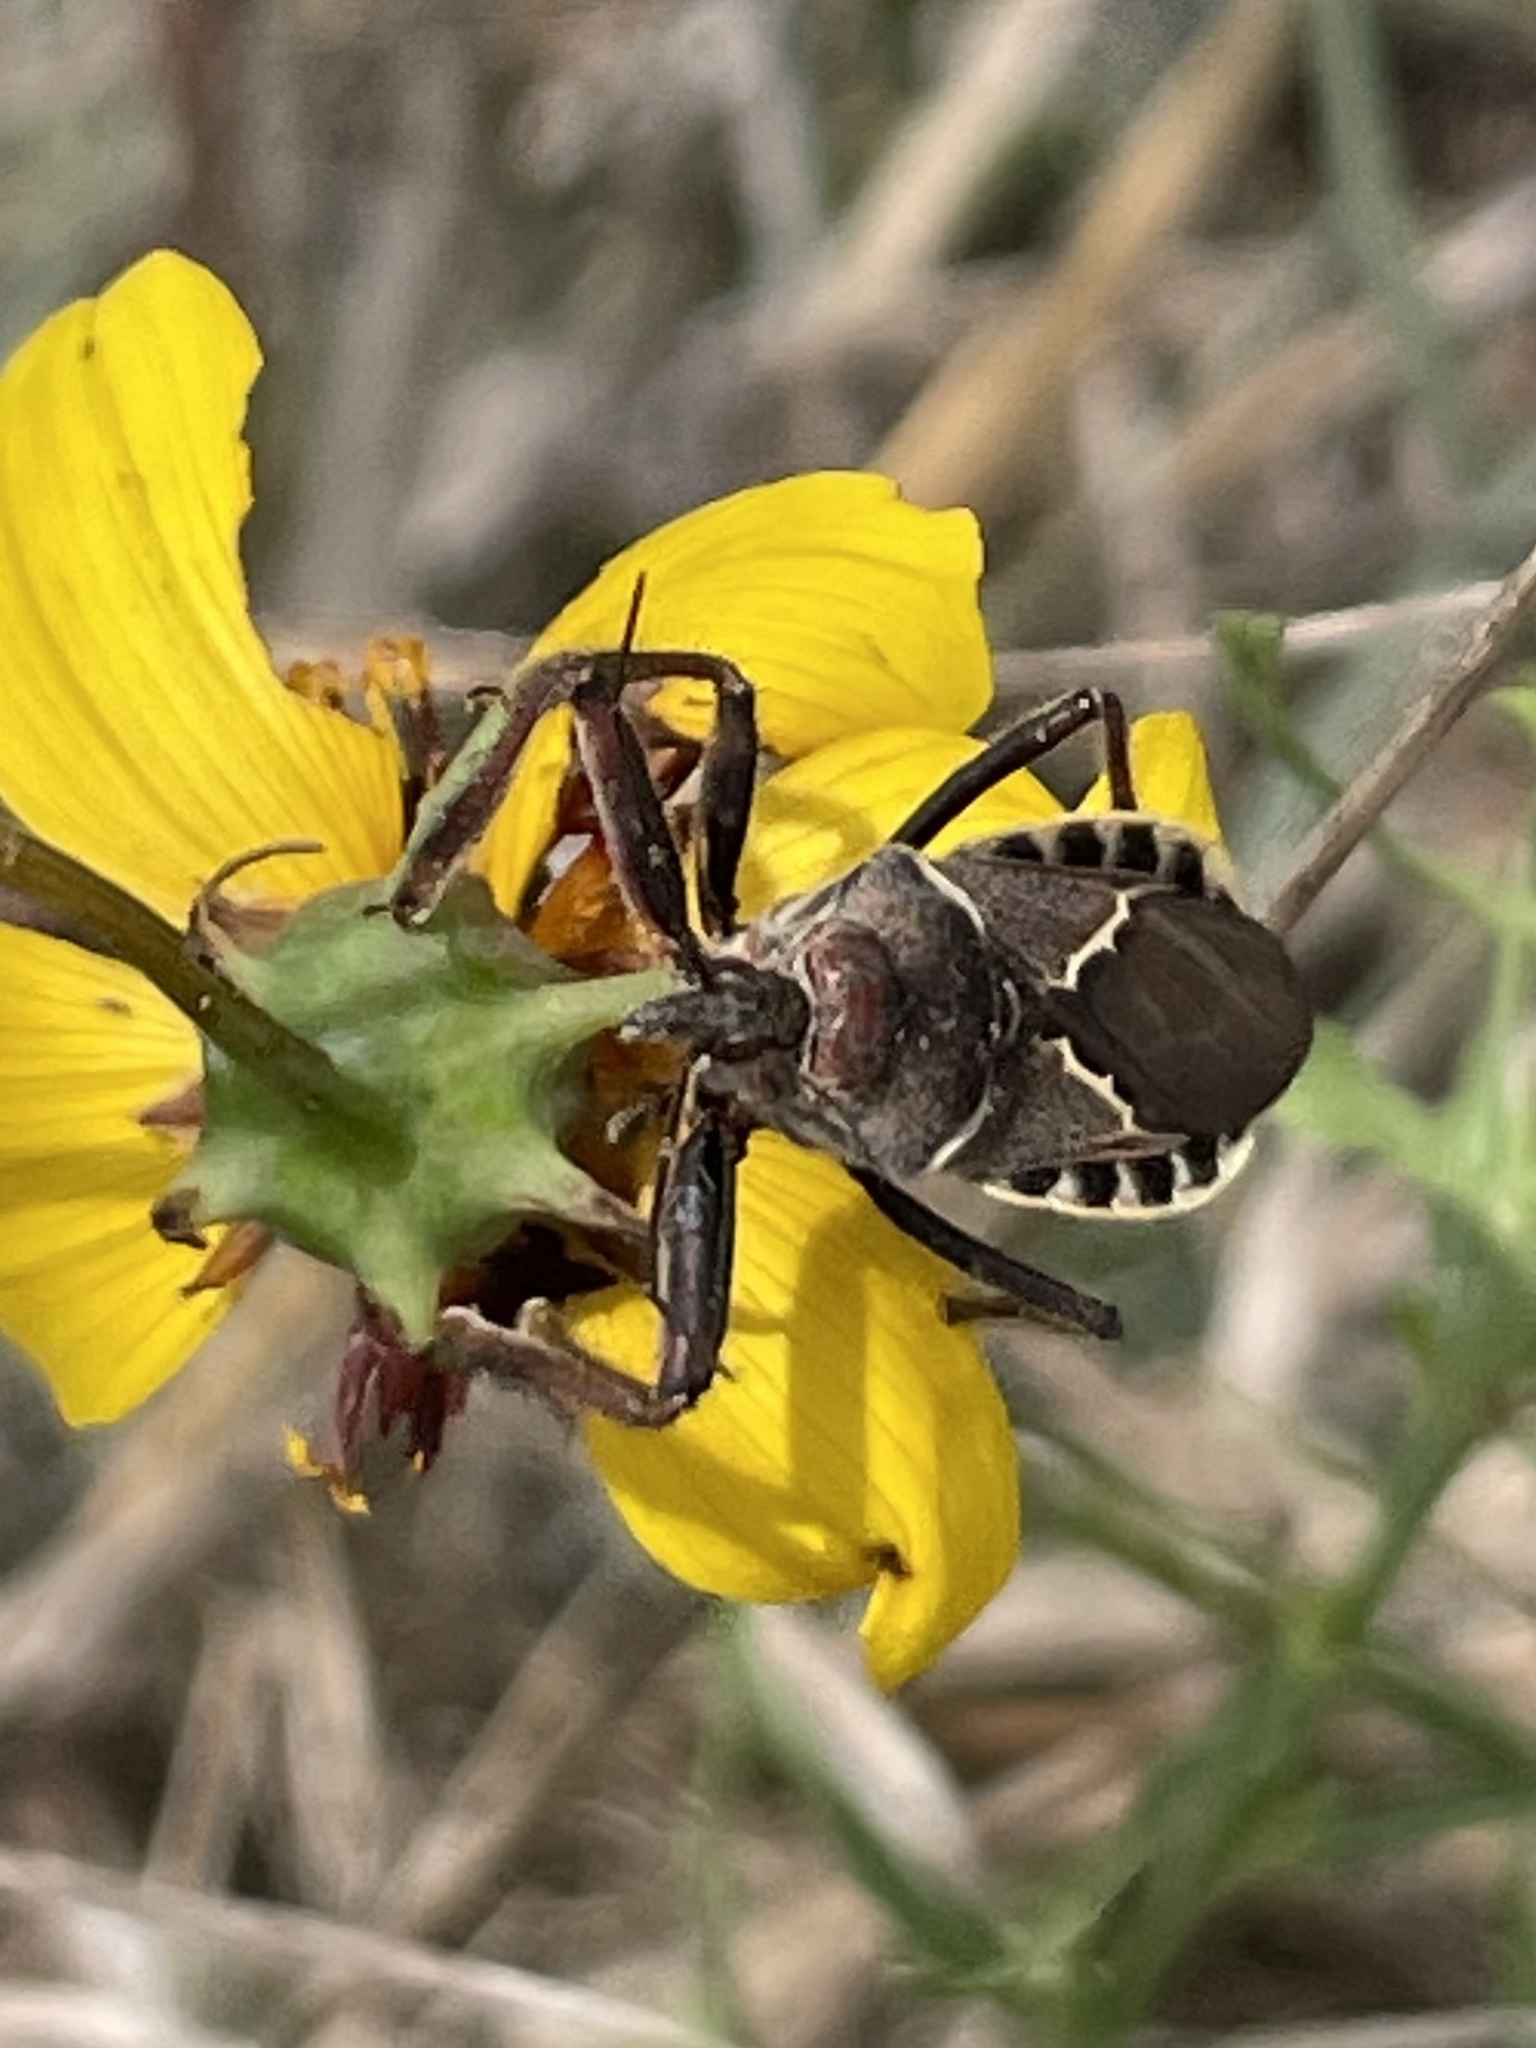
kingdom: Animalia
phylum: Arthropoda
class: Insecta
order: Hemiptera
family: Reduviidae
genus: Apiomerus
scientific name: Apiomerus spissipes
